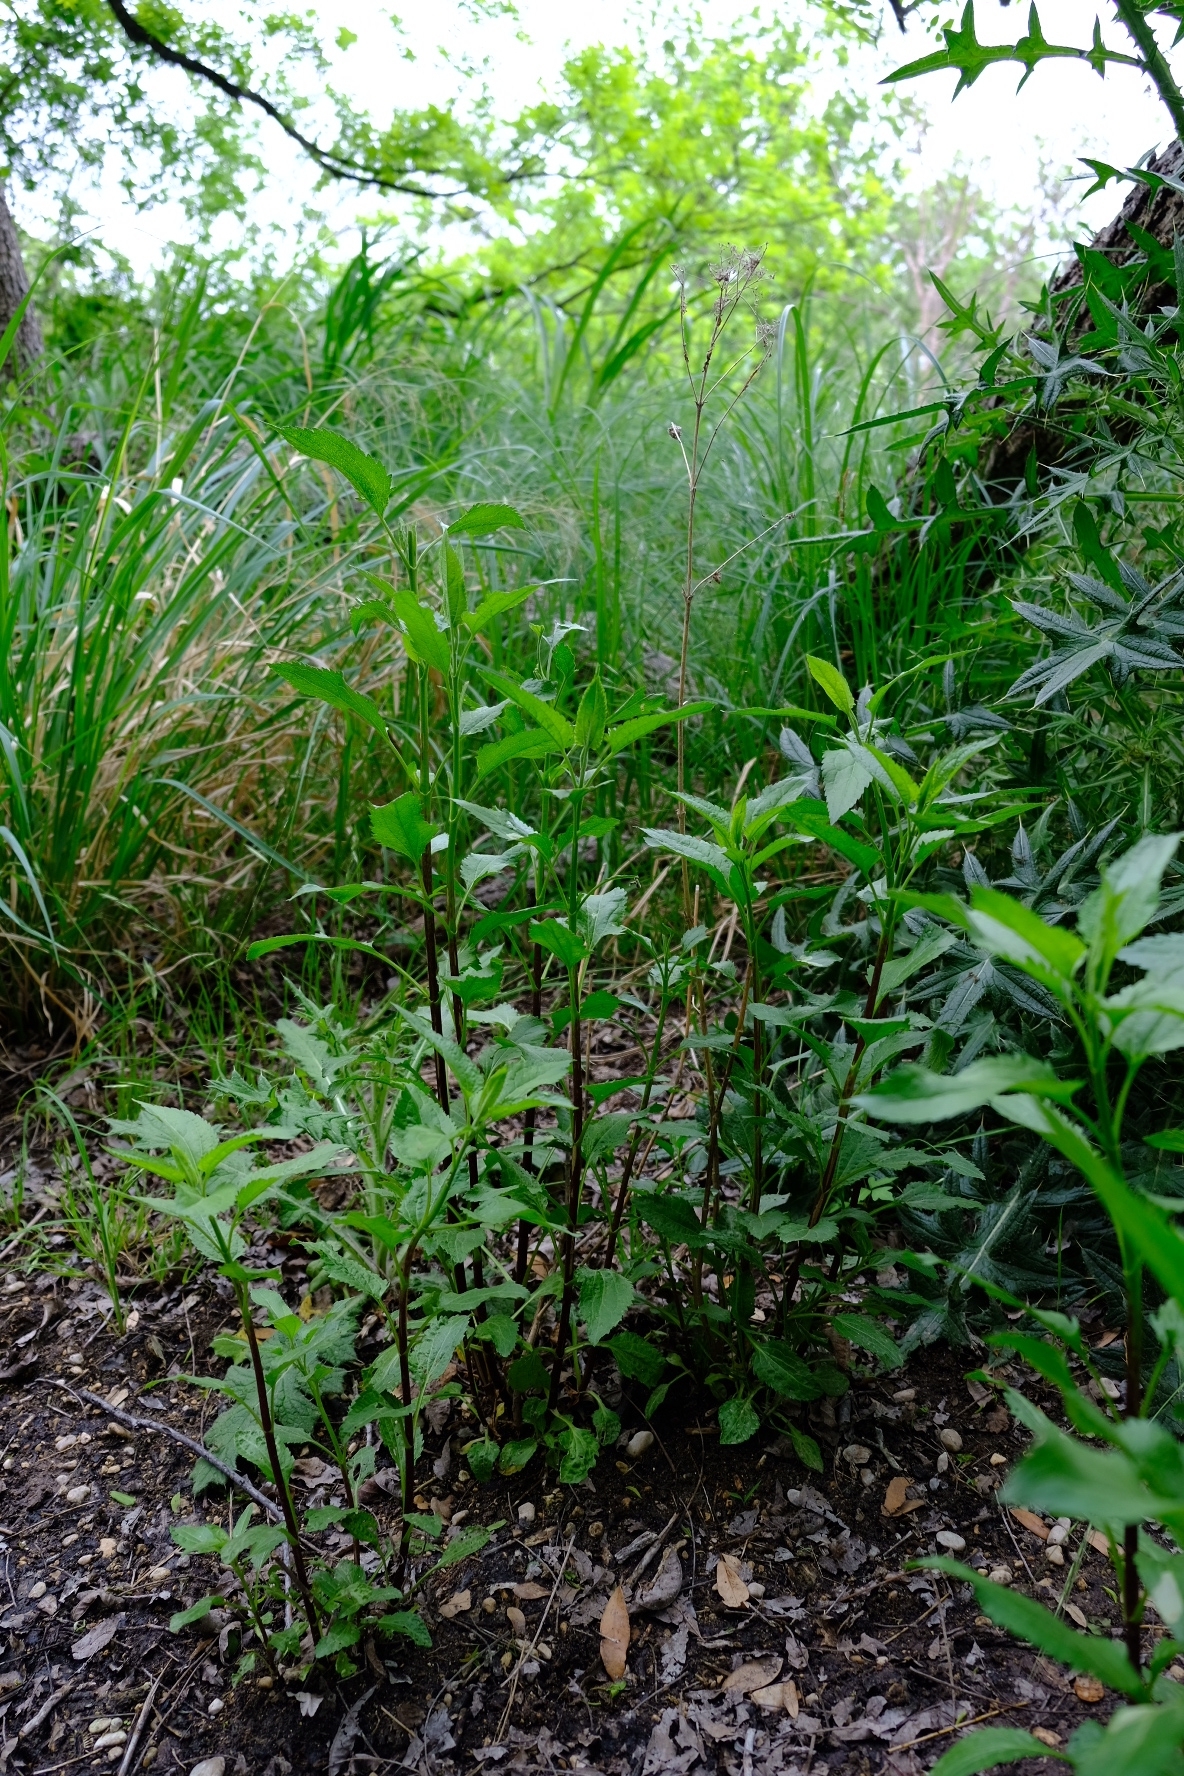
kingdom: Plantae
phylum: Tracheophyta
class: Magnoliopsida
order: Asterales
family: Asteraceae
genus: Eupatorium
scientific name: Eupatorium serotinum
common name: Late boneset
